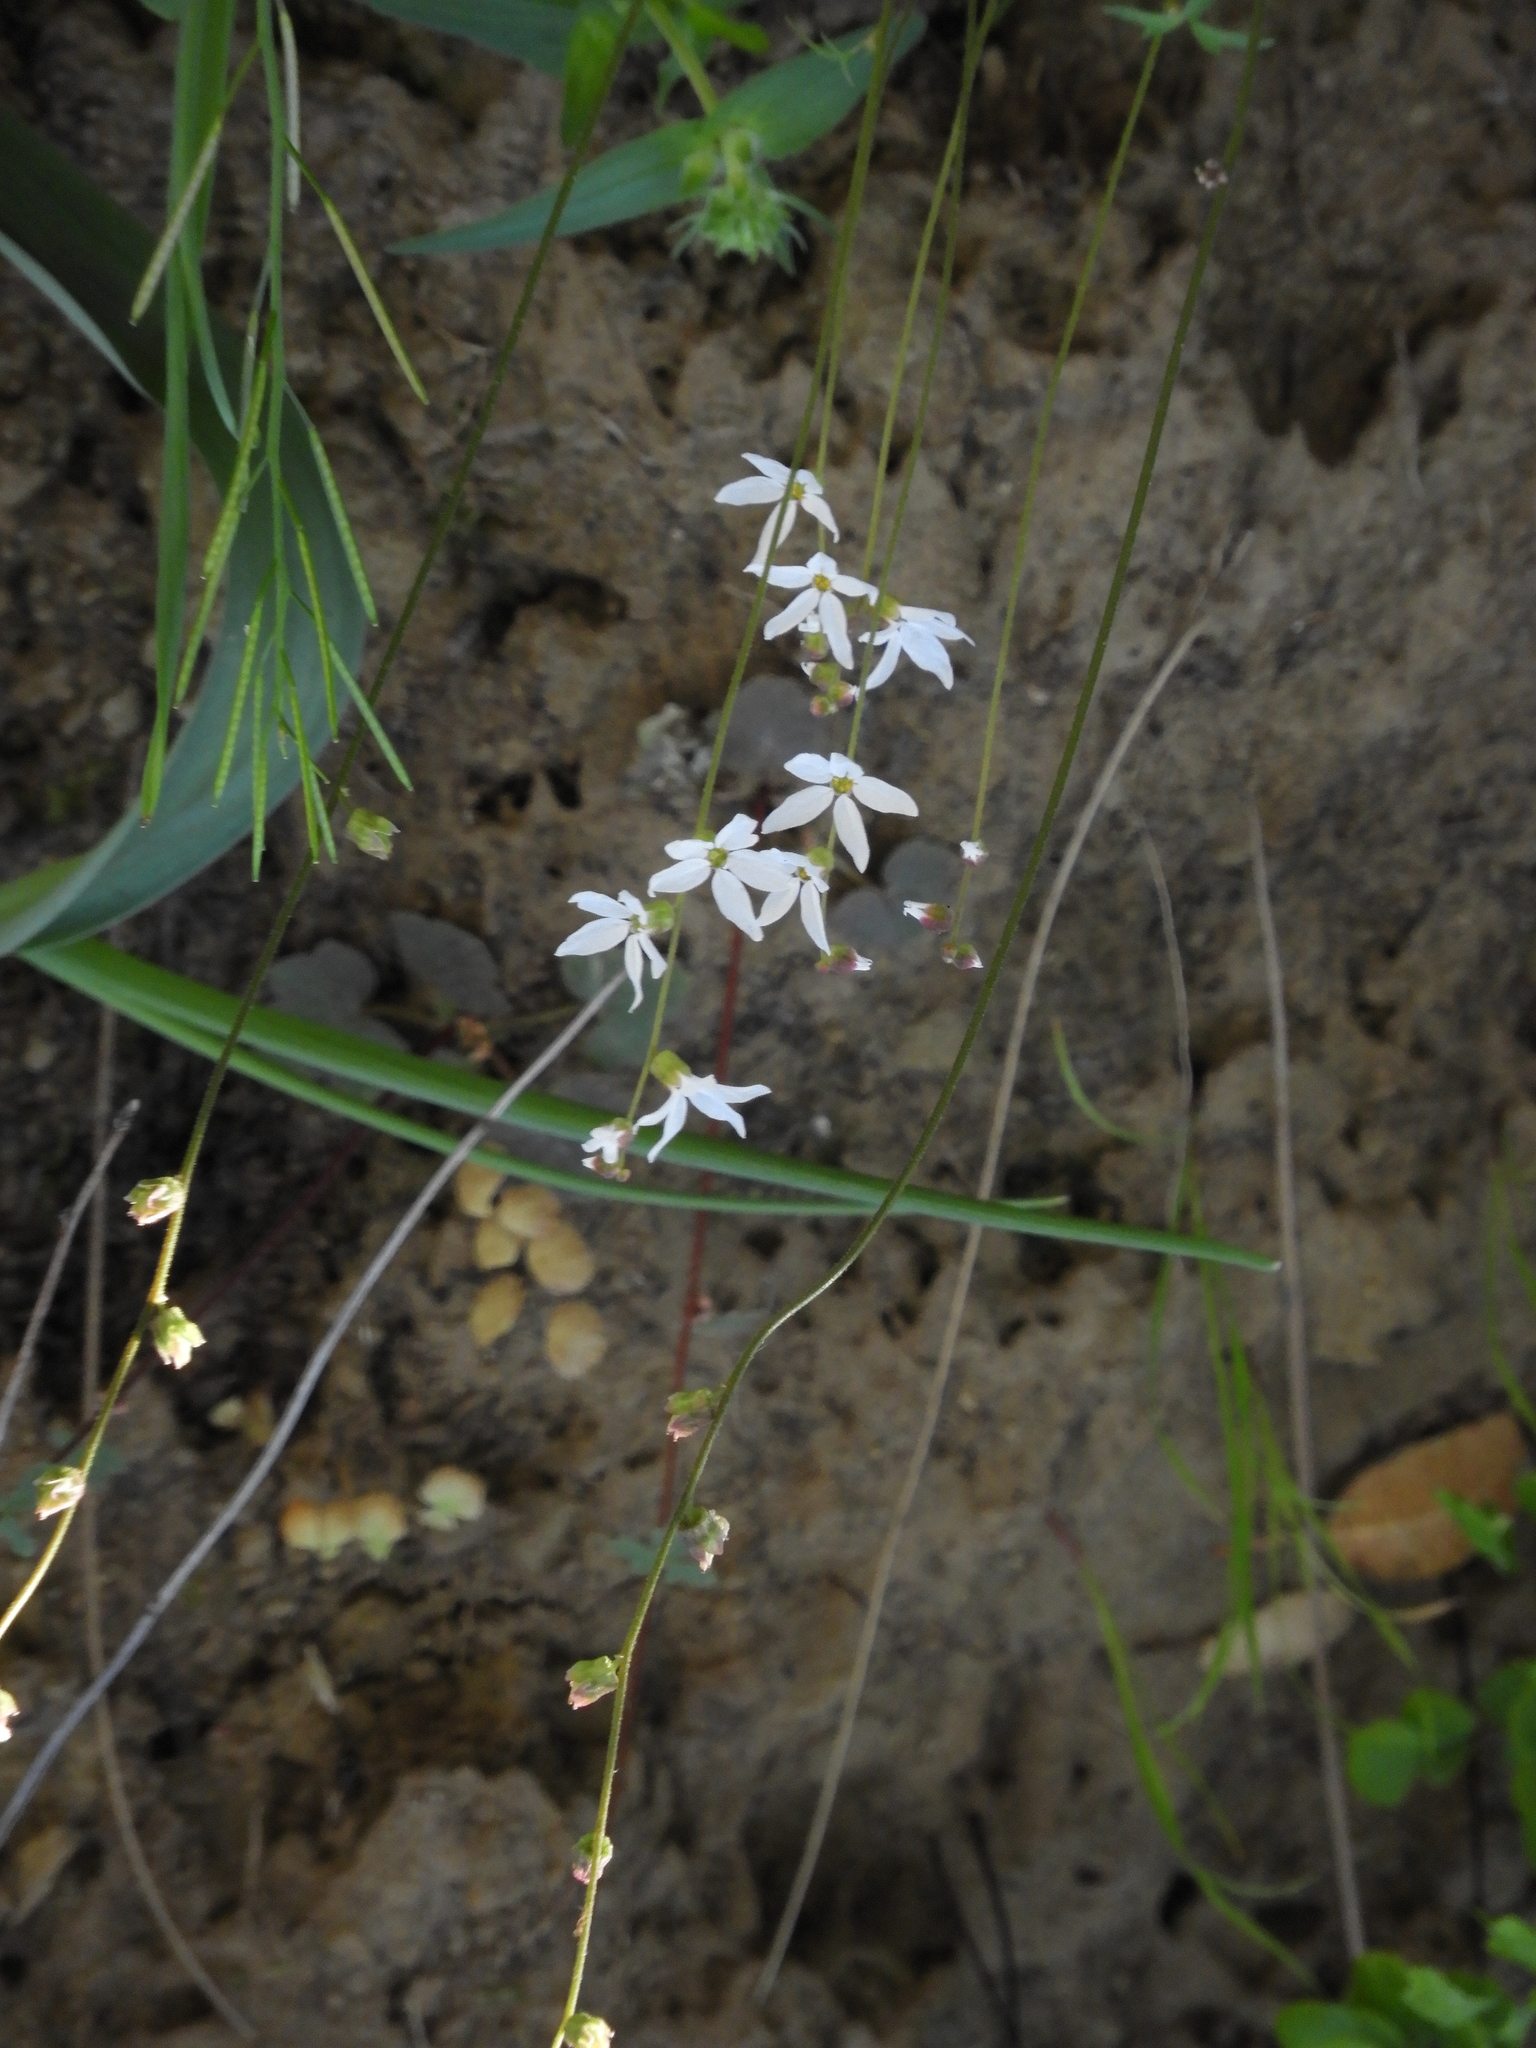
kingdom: Plantae
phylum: Tracheophyta
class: Magnoliopsida
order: Saxifragales
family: Saxifragaceae
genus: Lithophragma
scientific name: Lithophragma heterophyllum
